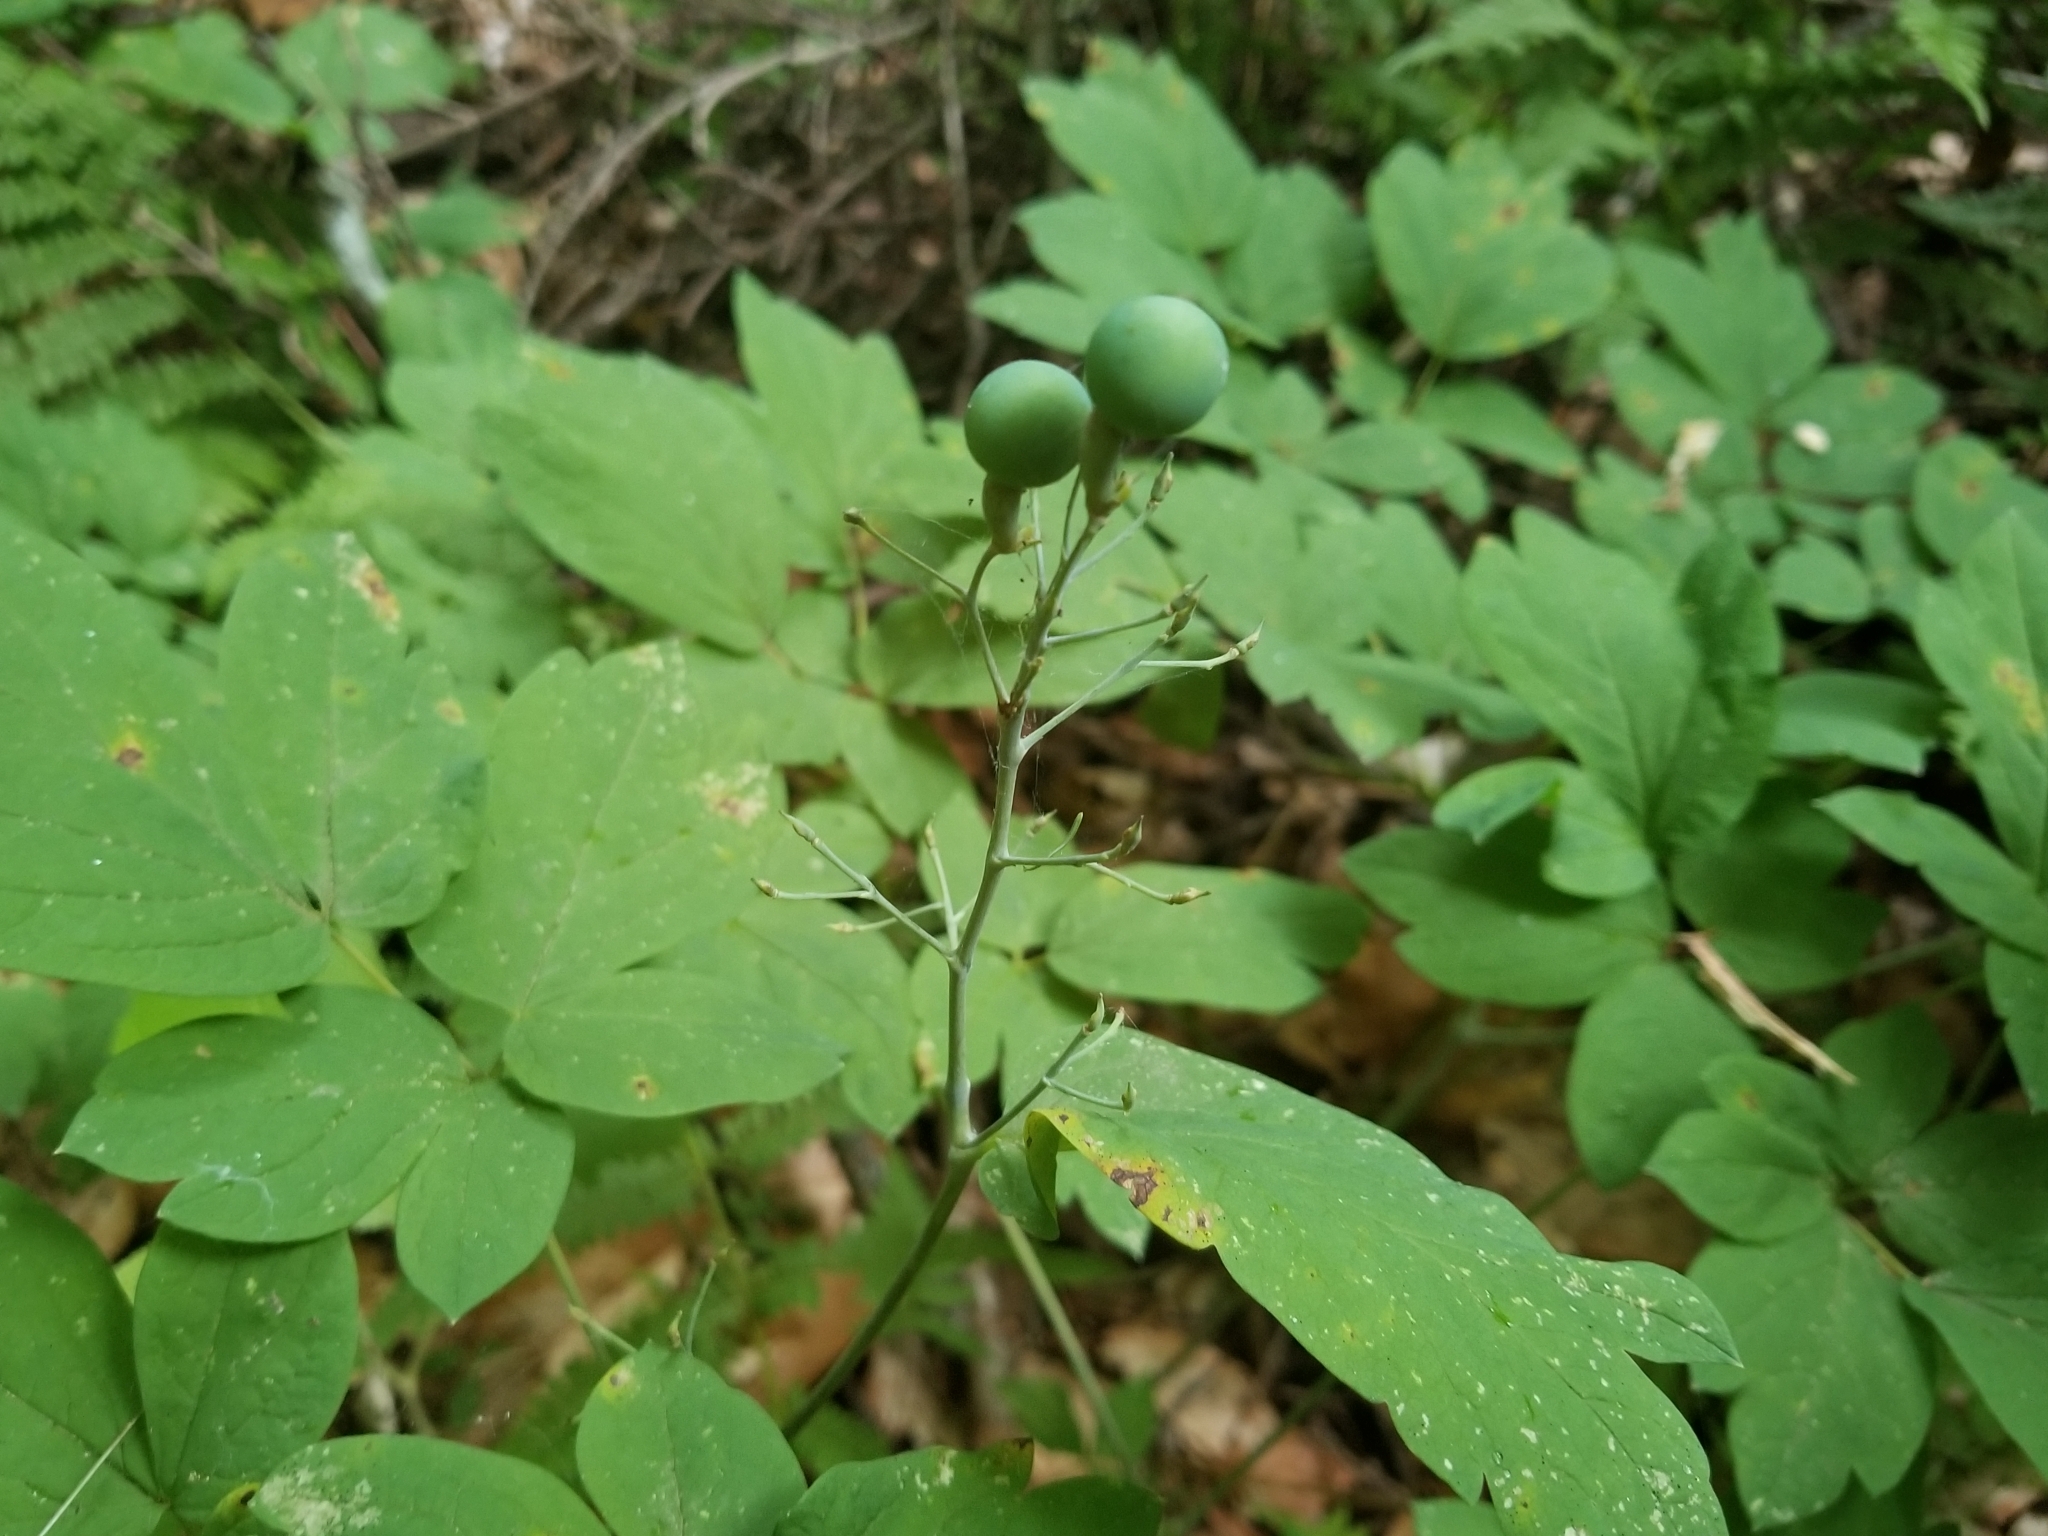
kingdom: Plantae
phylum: Tracheophyta
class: Magnoliopsida
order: Ranunculales
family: Berberidaceae
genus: Caulophyllum
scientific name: Caulophyllum thalictroides
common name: Blue cohosh
